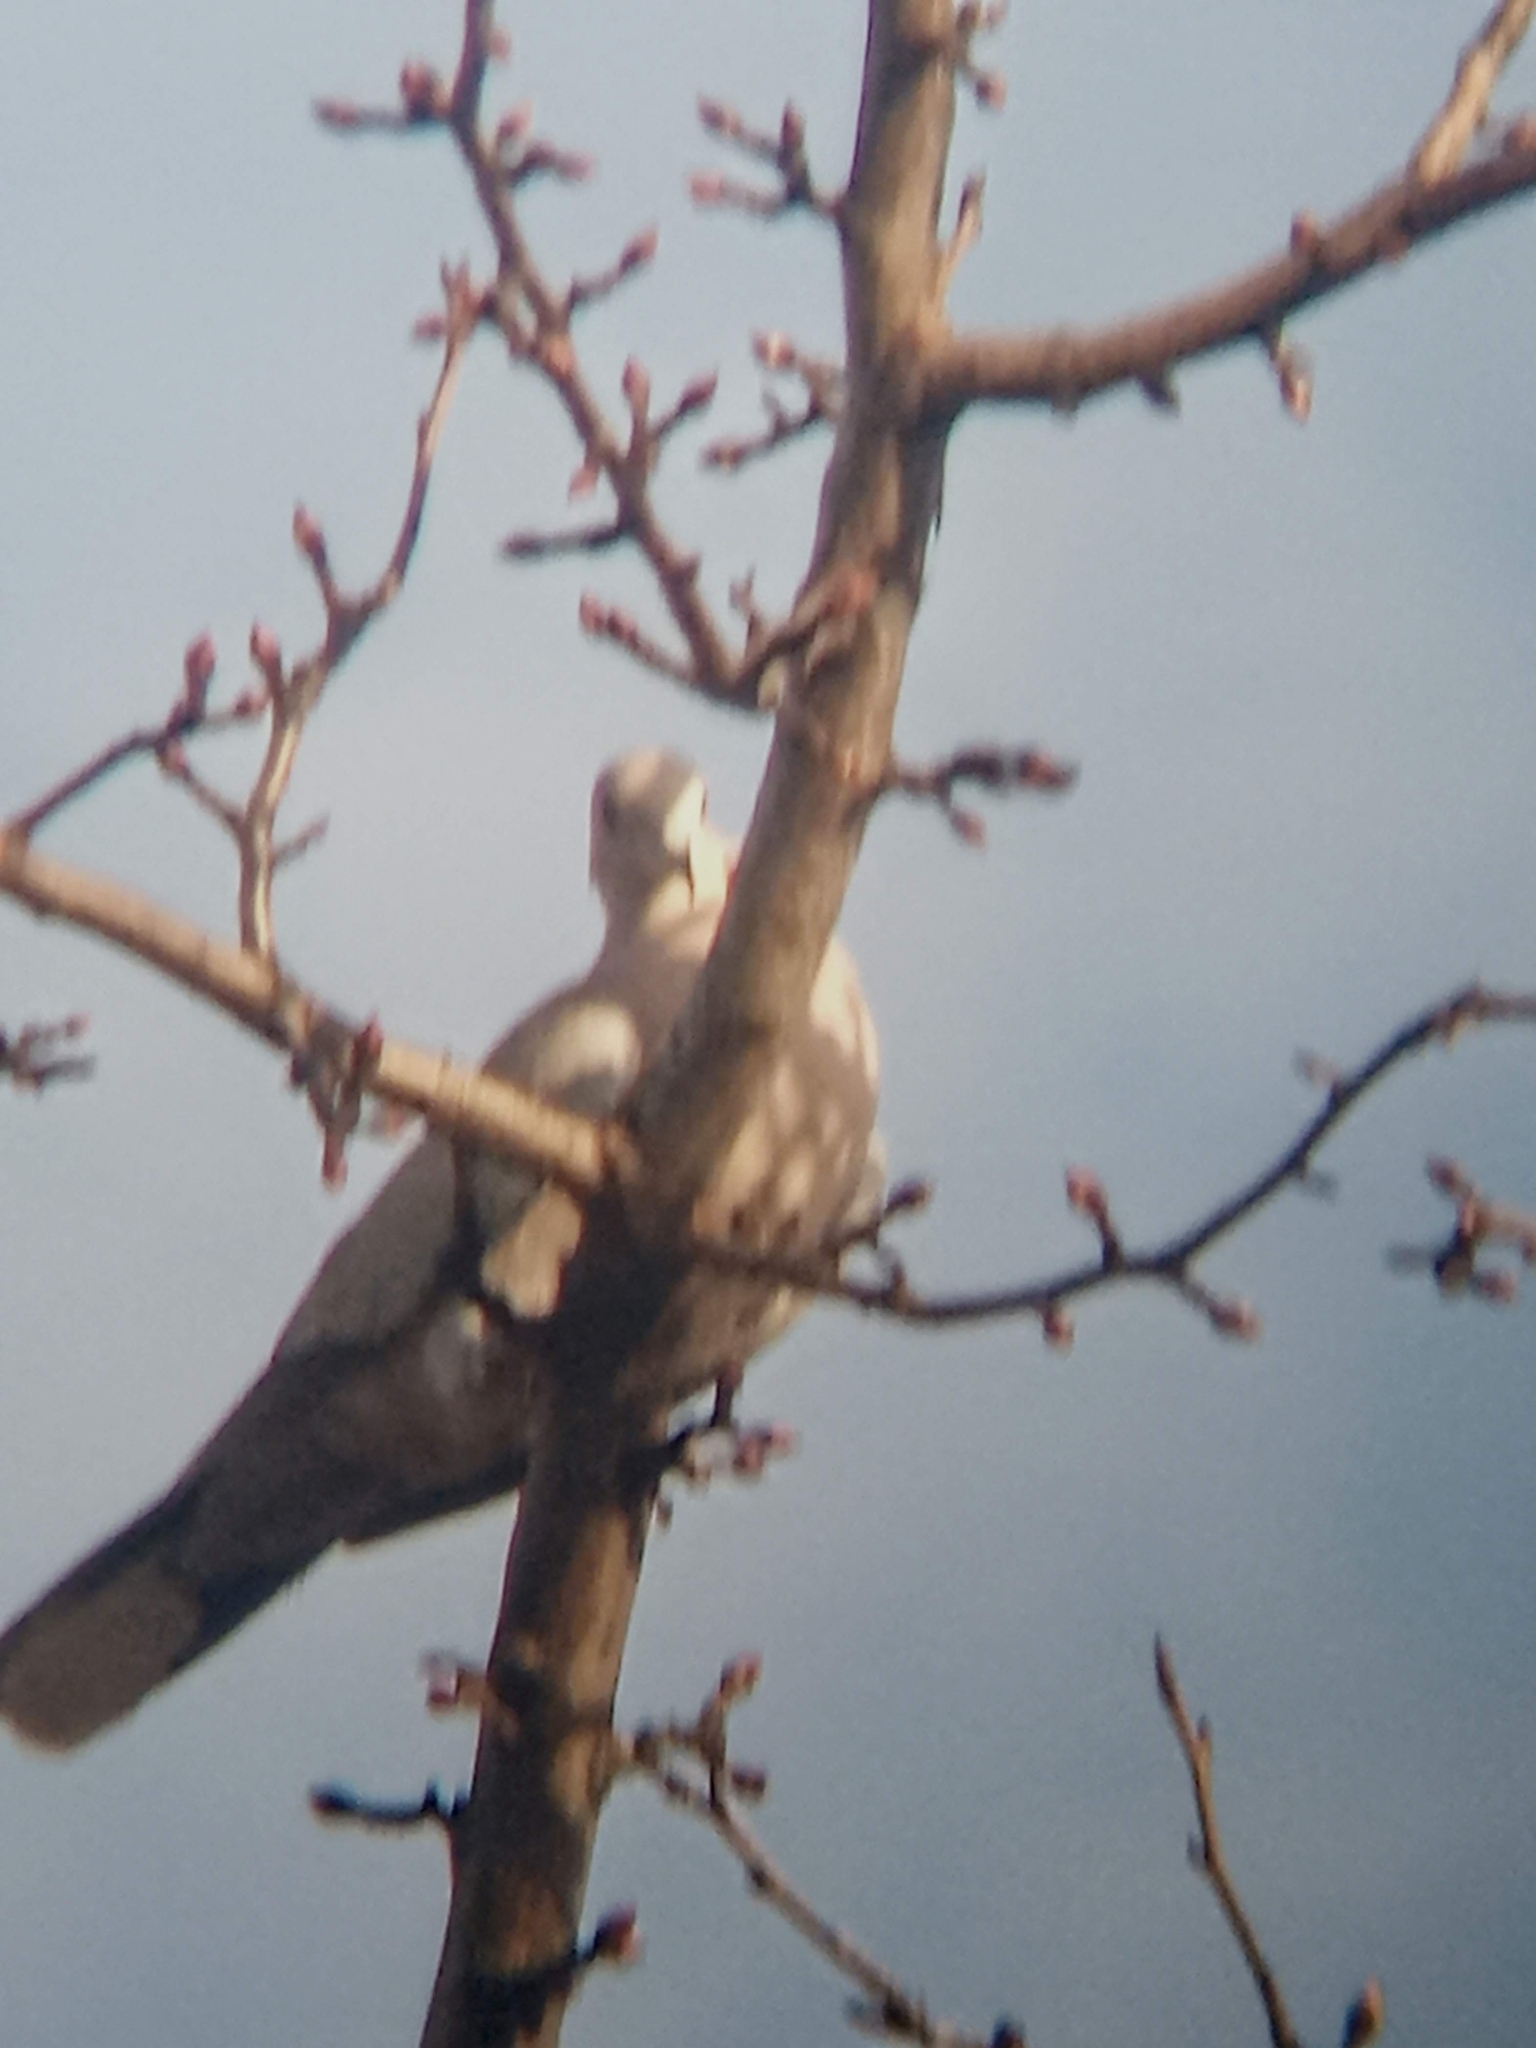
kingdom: Animalia
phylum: Chordata
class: Aves
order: Columbiformes
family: Columbidae
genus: Streptopelia
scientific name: Streptopelia decaocto
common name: Eurasian collared dove
